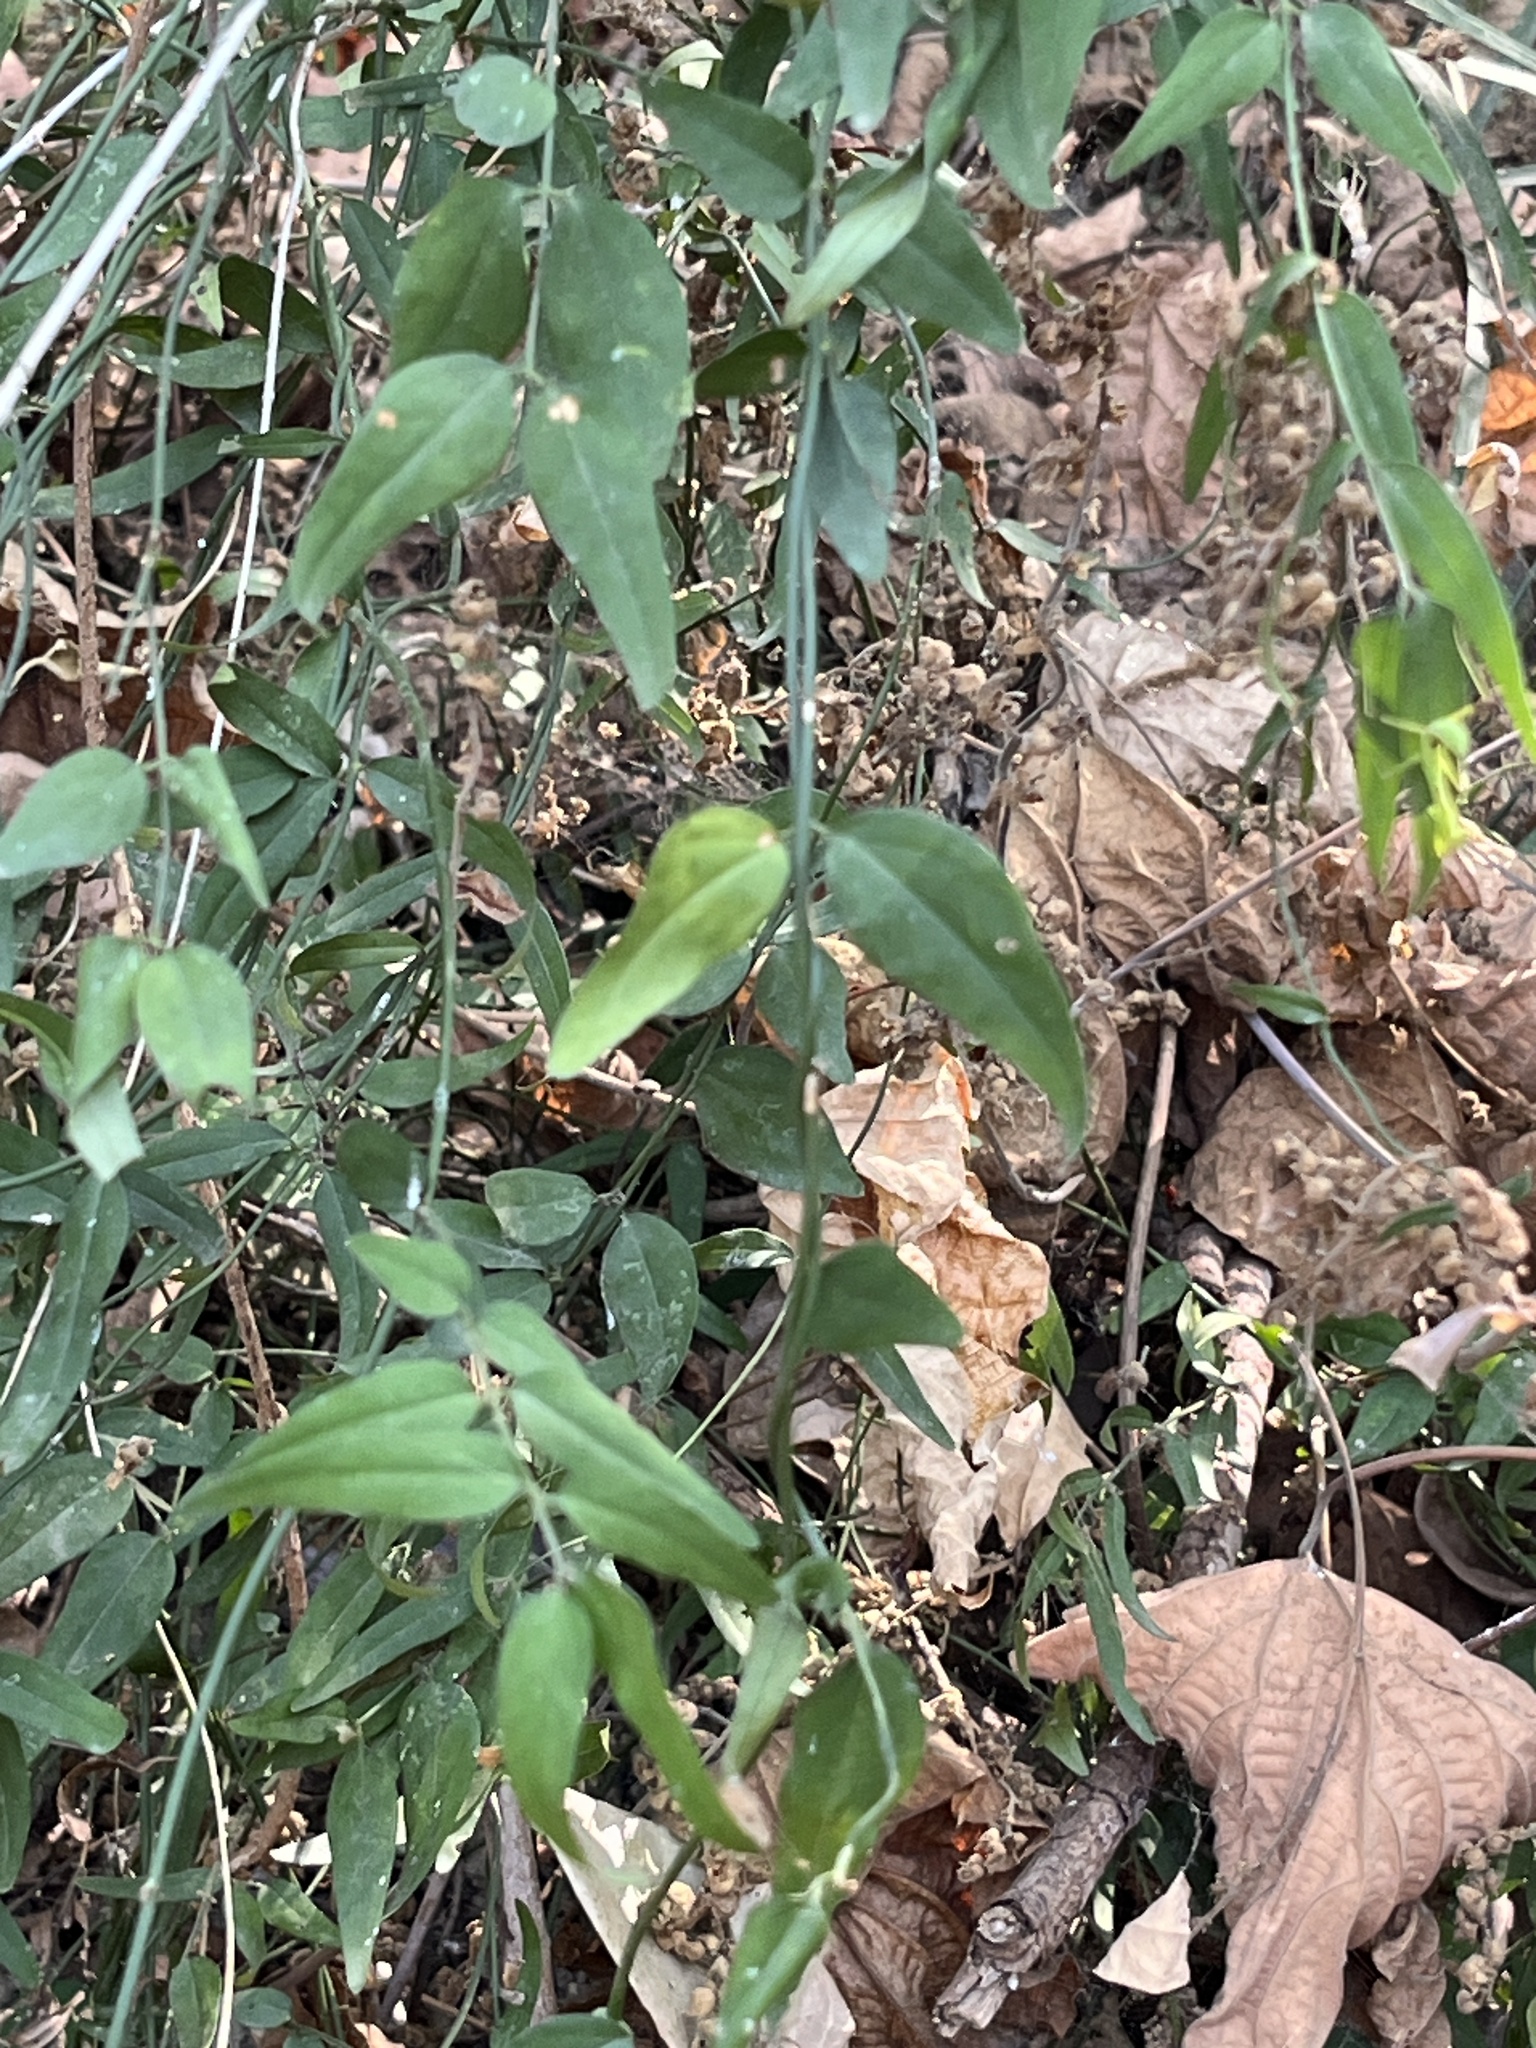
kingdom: Plantae
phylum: Tracheophyta
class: Magnoliopsida
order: Lamiales
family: Oleaceae
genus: Jasminum
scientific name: Jasminum nervosum
